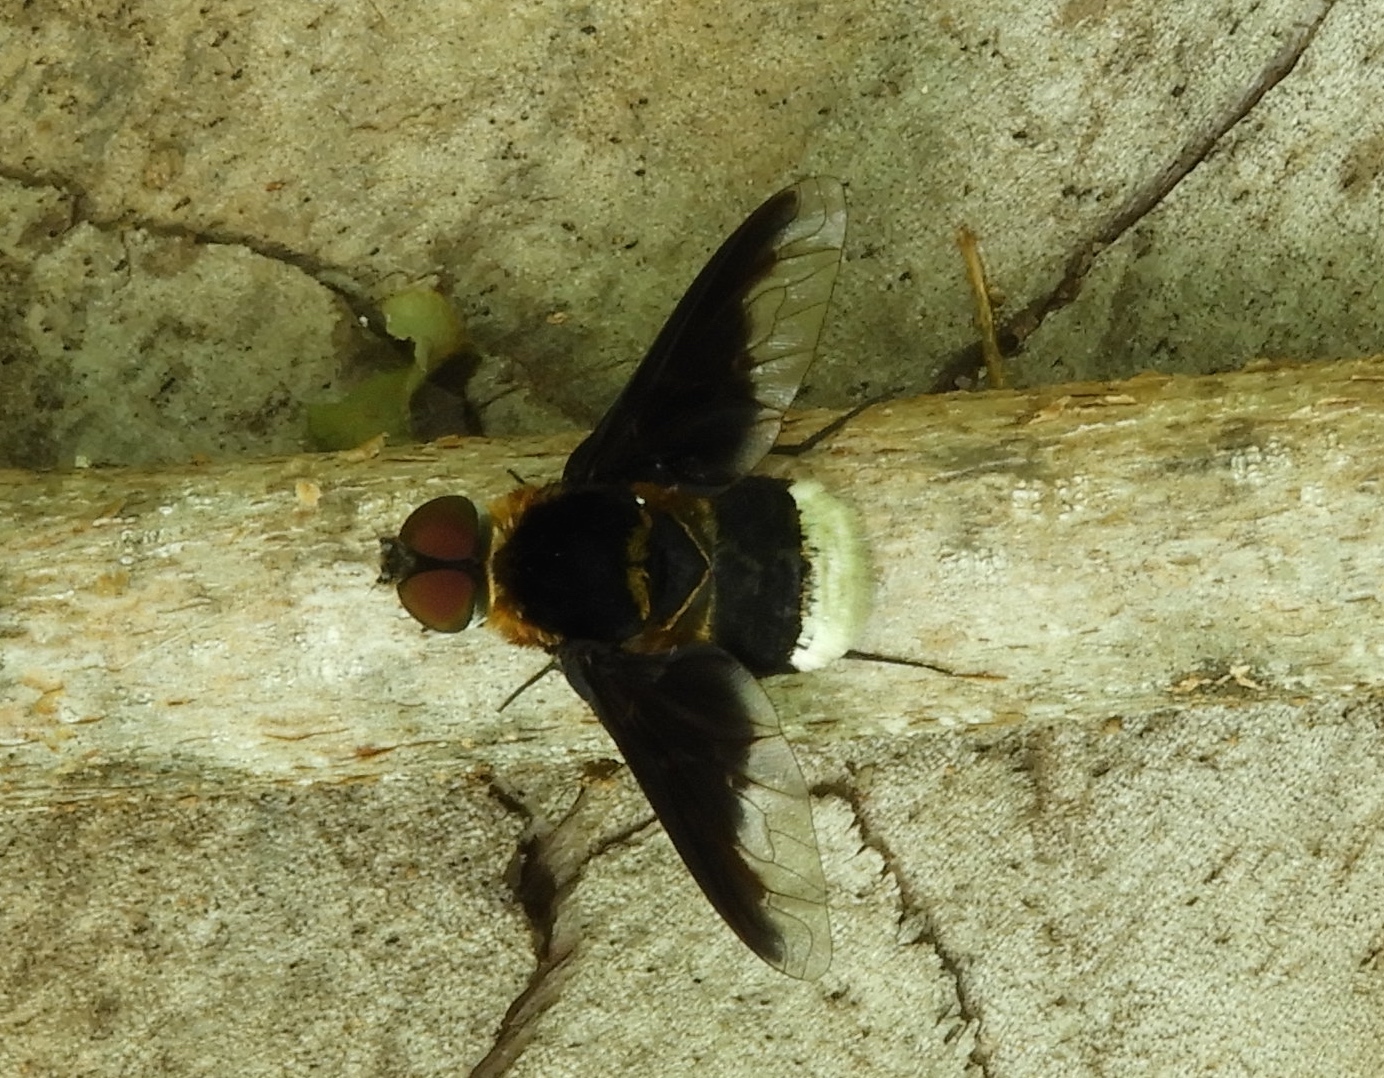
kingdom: Animalia
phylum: Arthropoda
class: Insecta
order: Diptera
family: Bombyliidae
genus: Ins
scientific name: Ins pleuralis
